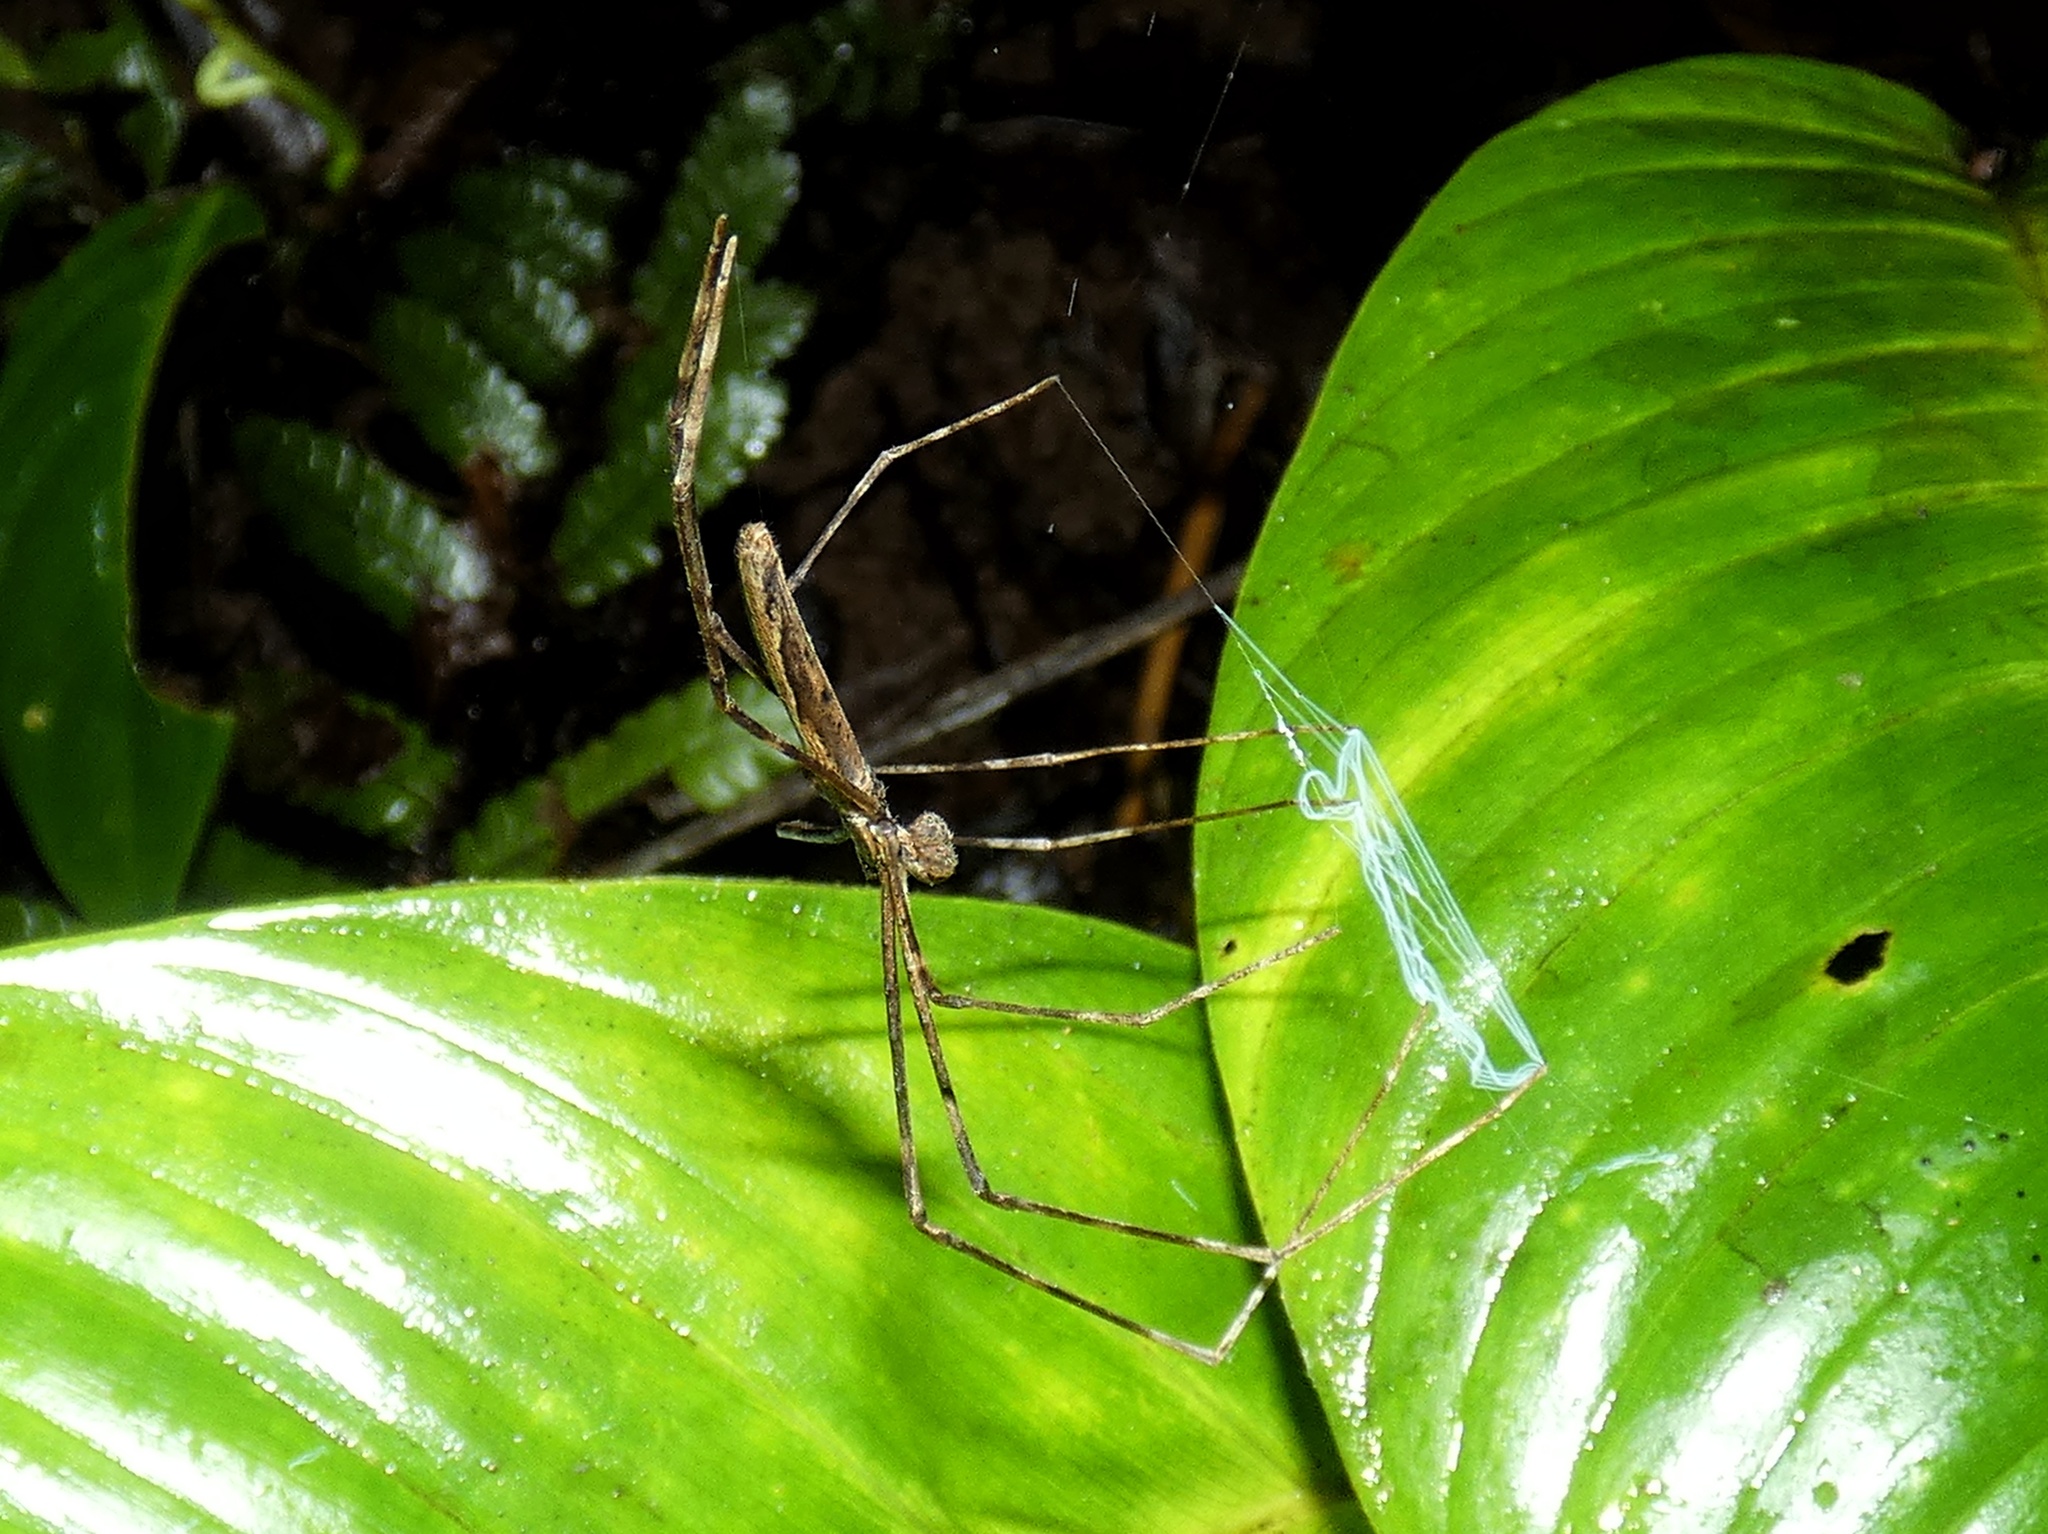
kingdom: Animalia
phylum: Arthropoda
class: Arachnida
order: Araneae
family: Deinopidae
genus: Deinopis
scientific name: Deinopis longipes
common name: Ogre faced spiders
